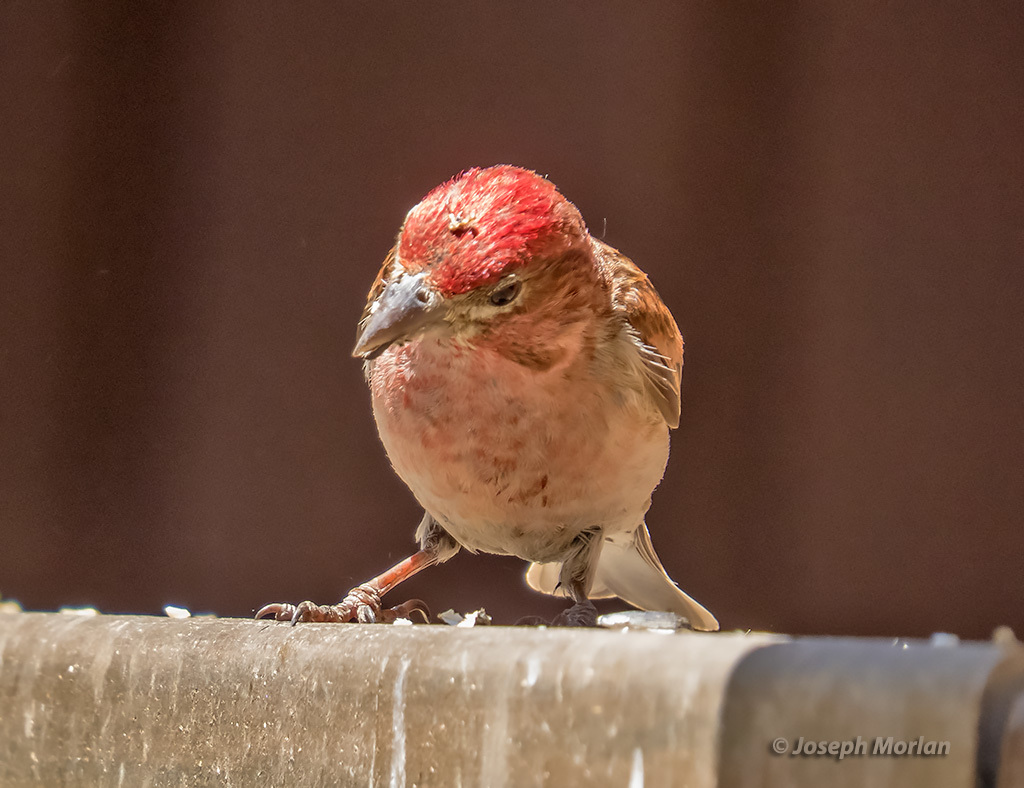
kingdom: Animalia
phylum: Chordata
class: Aves
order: Passeriformes
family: Fringillidae
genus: Haemorhous
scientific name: Haemorhous cassinii
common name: Cassin's finch
